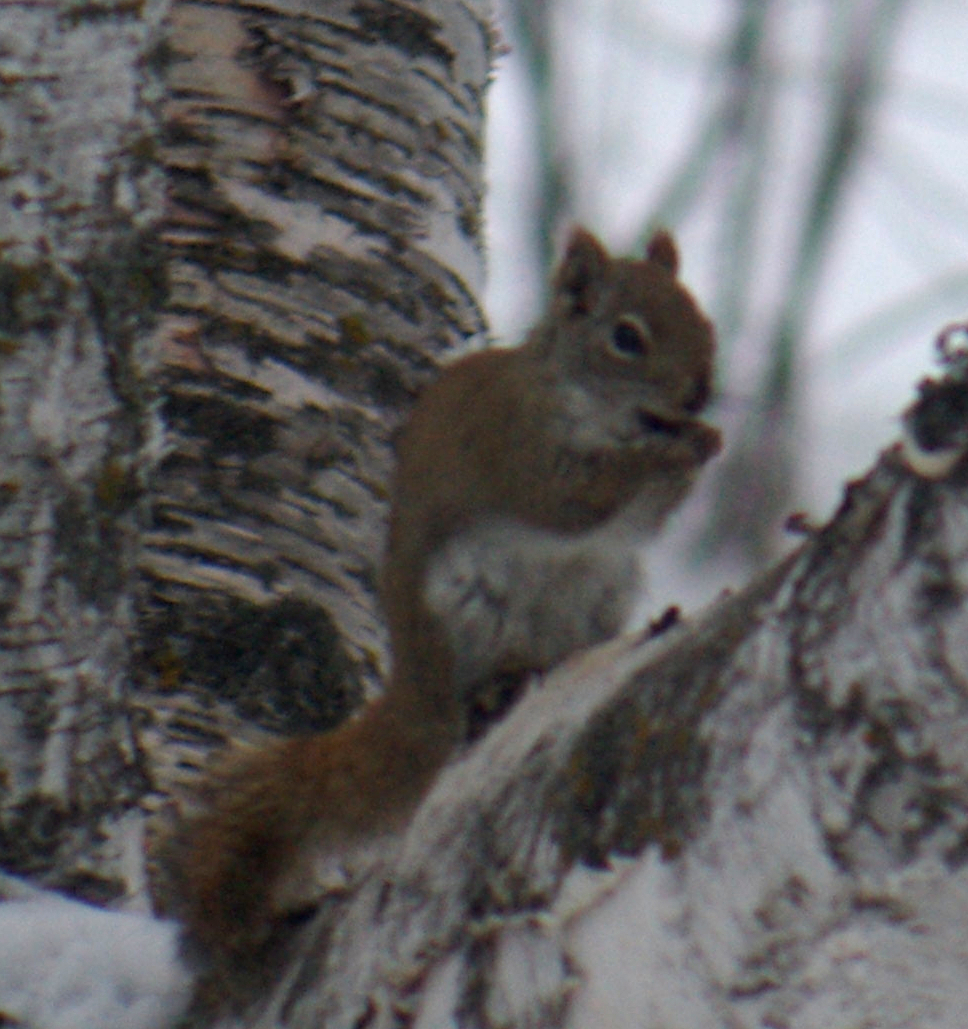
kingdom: Animalia
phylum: Chordata
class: Mammalia
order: Rodentia
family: Sciuridae
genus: Tamiasciurus
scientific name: Tamiasciurus hudsonicus
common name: Red squirrel
